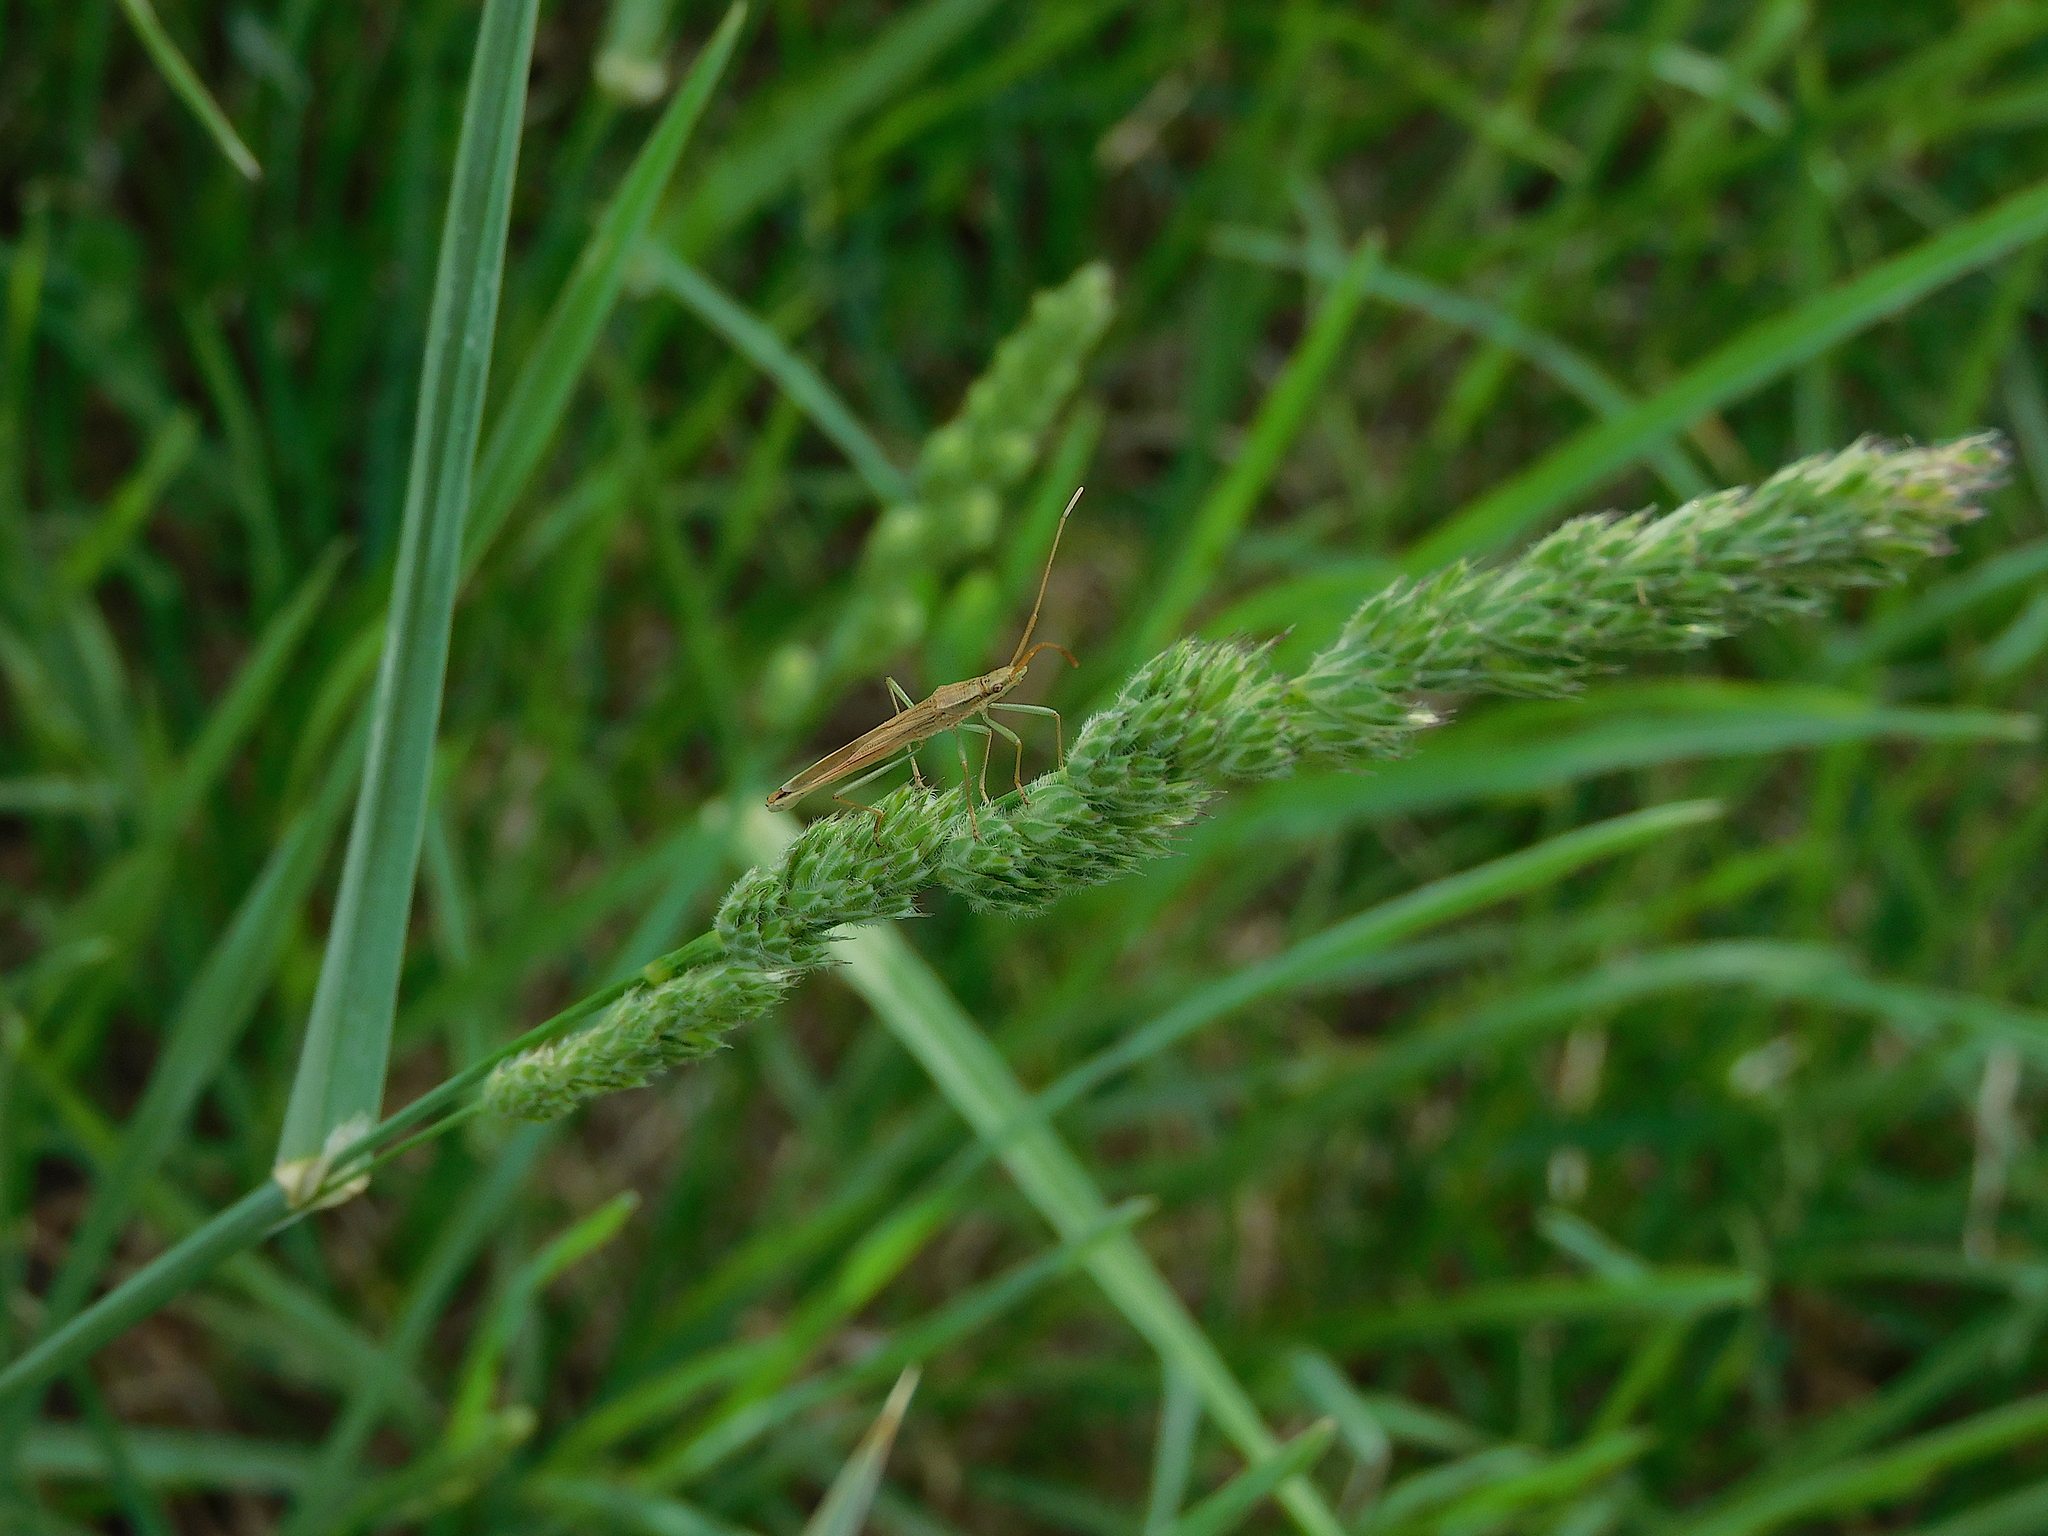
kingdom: Animalia
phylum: Arthropoda
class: Insecta
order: Hemiptera
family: Alydidae
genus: Mutusca
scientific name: Mutusca brevicornis
